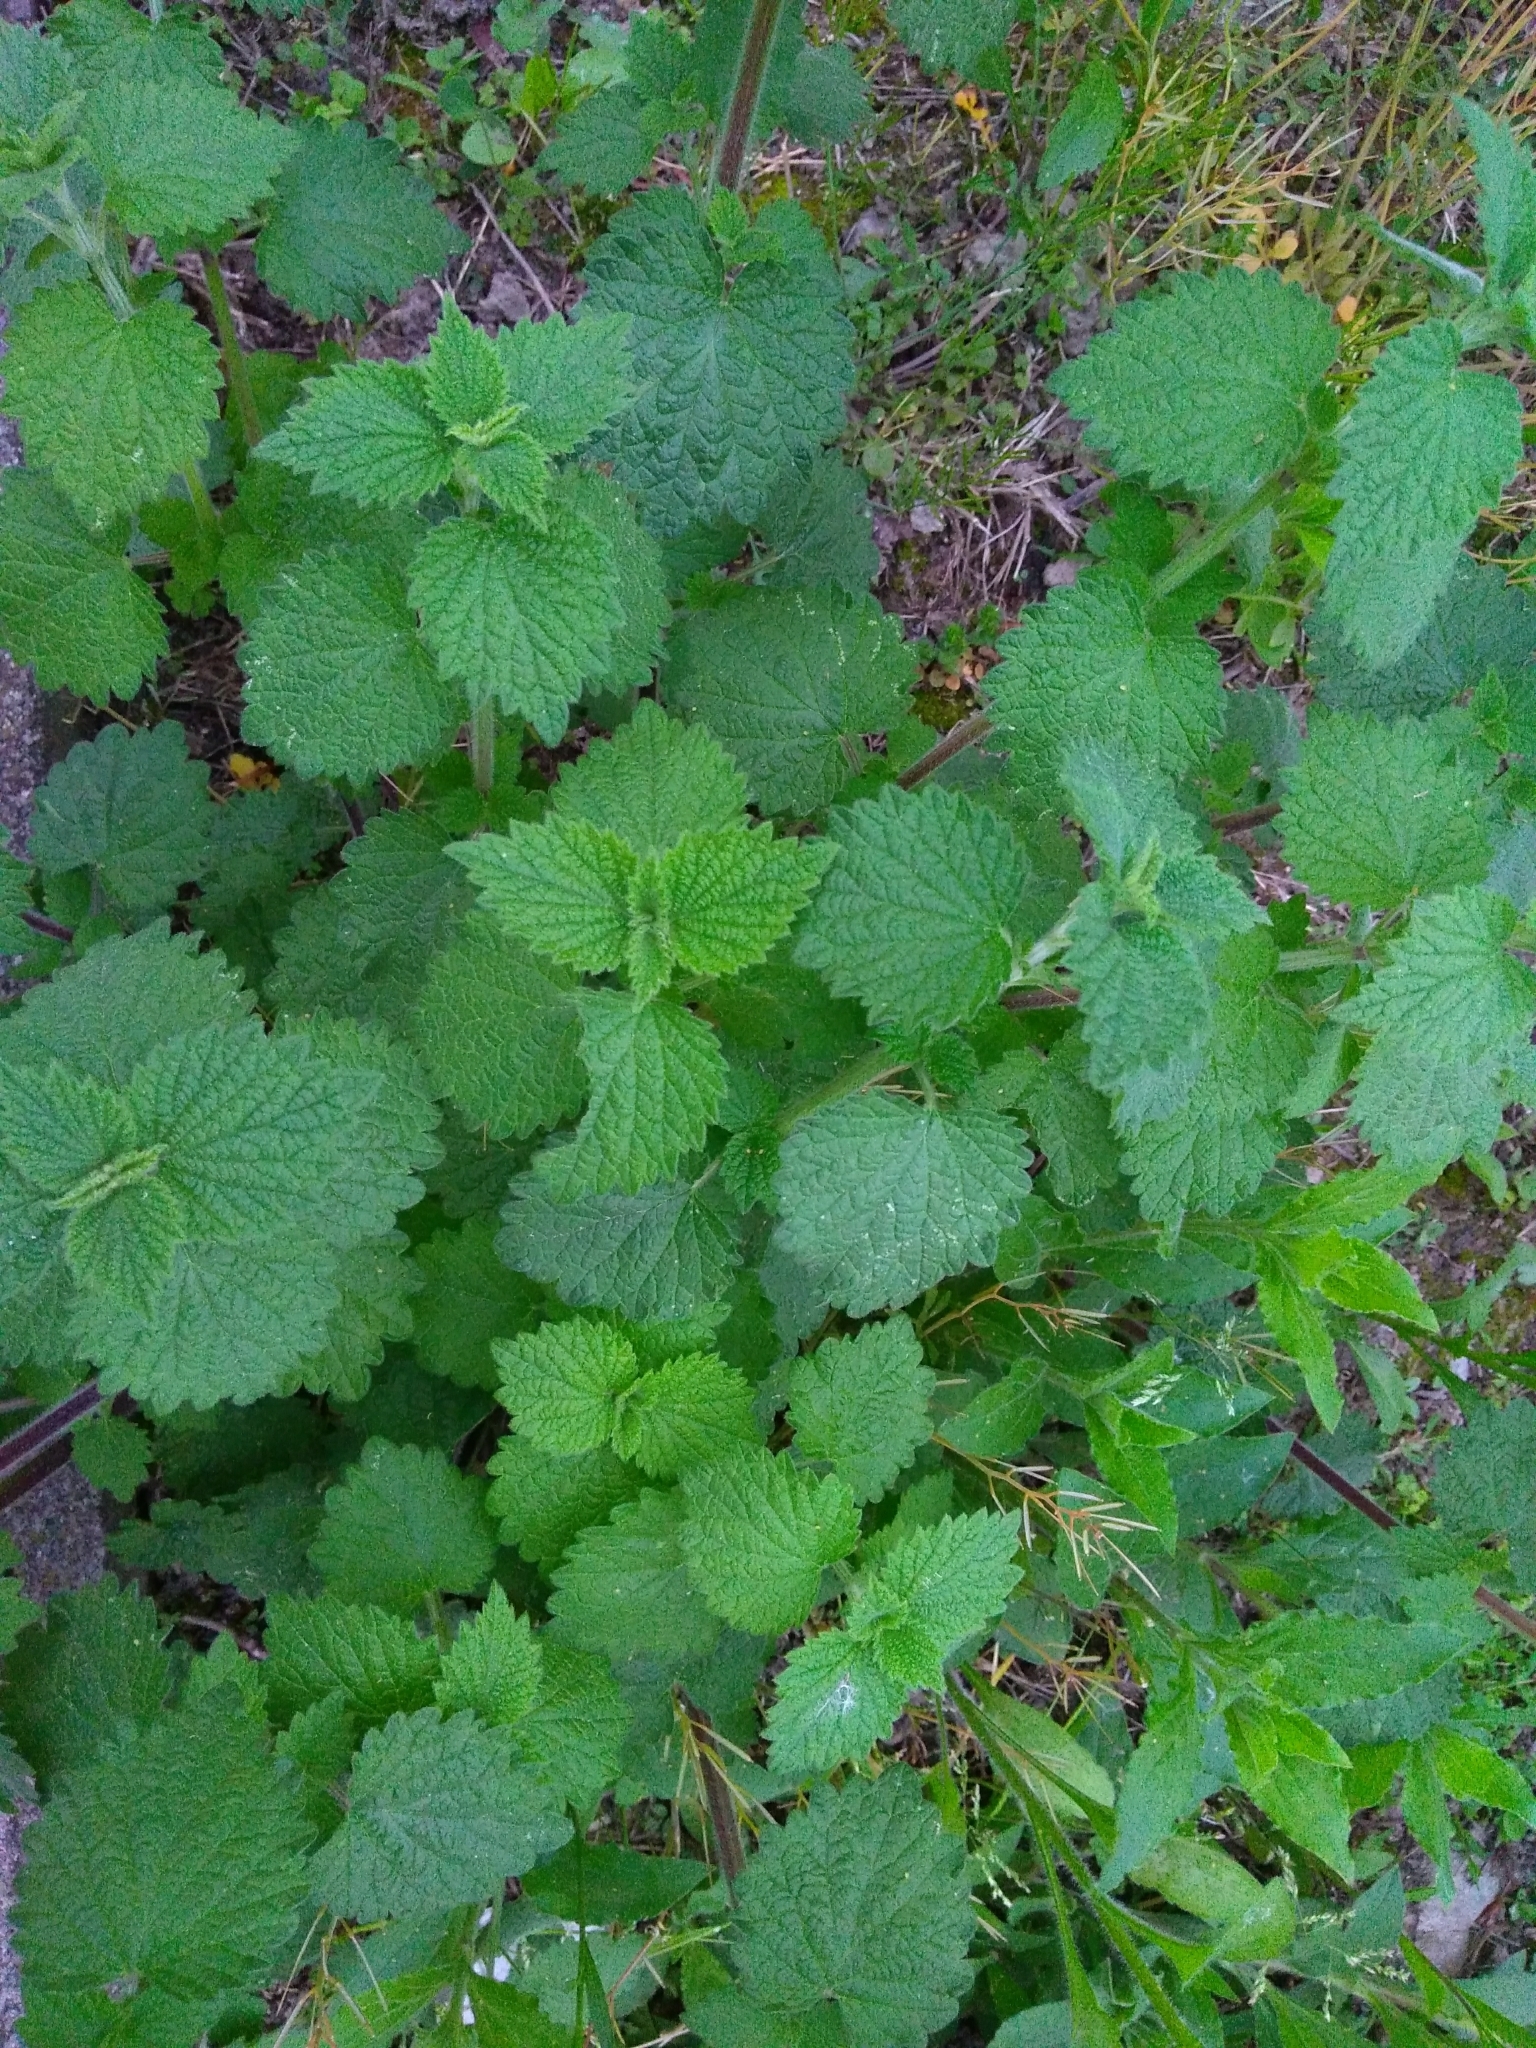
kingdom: Plantae
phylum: Tracheophyta
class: Magnoliopsida
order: Lamiales
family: Lamiaceae
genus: Ballota
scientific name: Ballota nigra
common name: Black horehound
